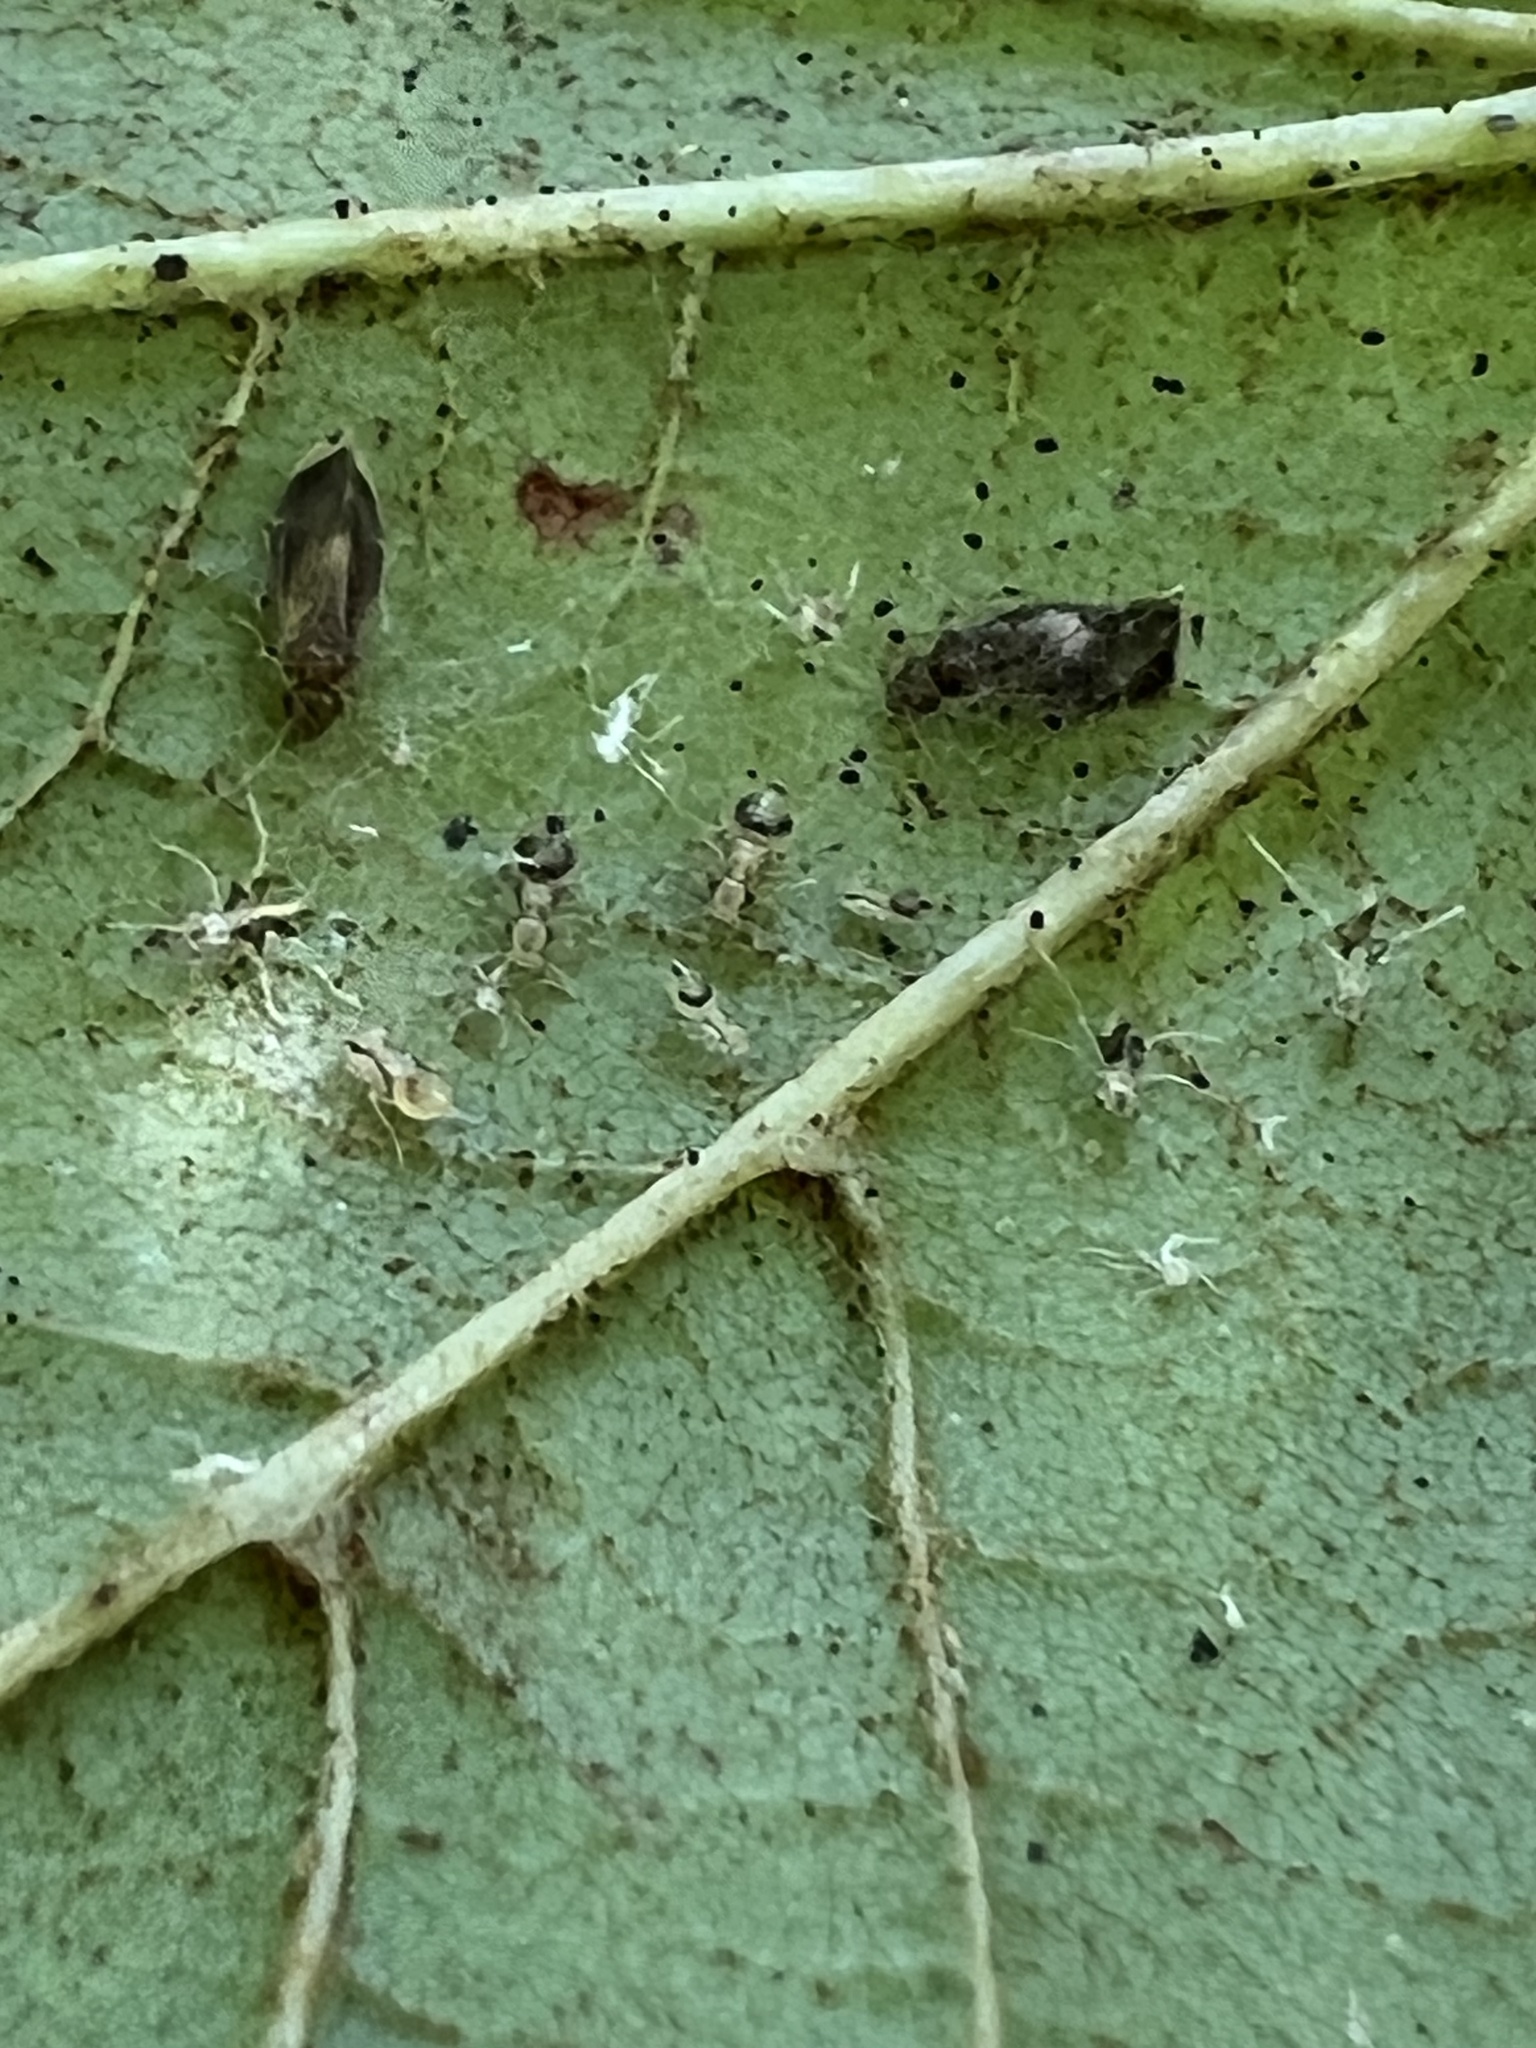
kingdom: Animalia
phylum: Arthropoda
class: Insecta
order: Psocodea
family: Amphipsocidae
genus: Polypsocus
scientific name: Polypsocus corruptus
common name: Corrupt barklouse
